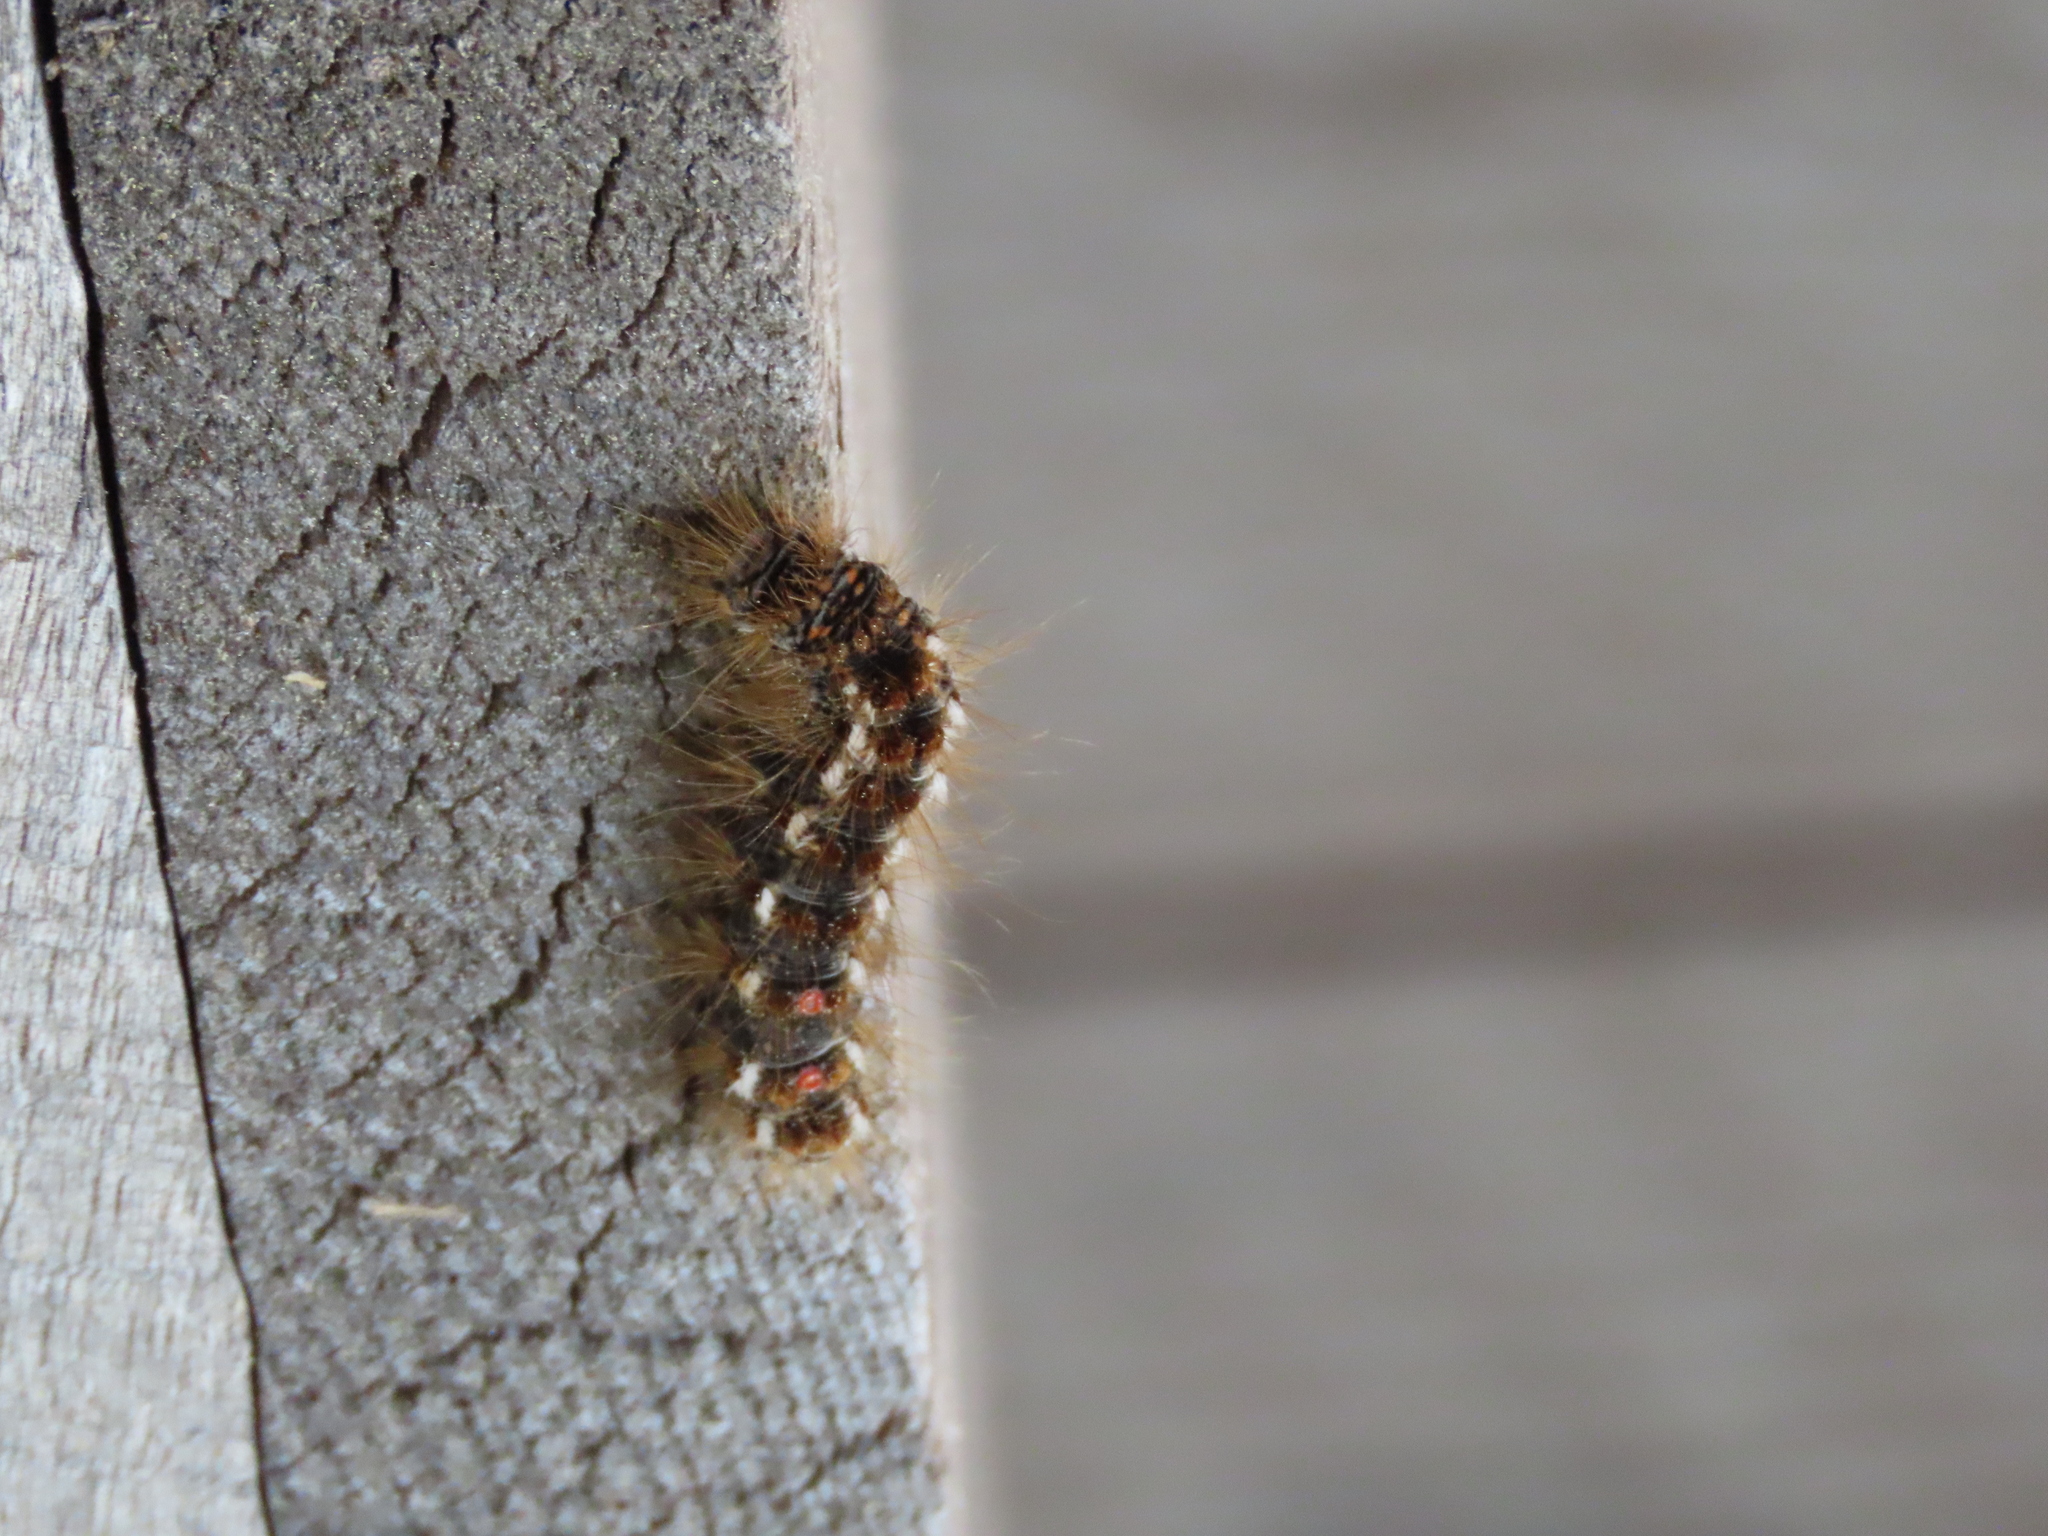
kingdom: Animalia
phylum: Arthropoda
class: Insecta
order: Lepidoptera
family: Erebidae
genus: Euproctis
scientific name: Euproctis chrysorrhoea
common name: Brown-tail
